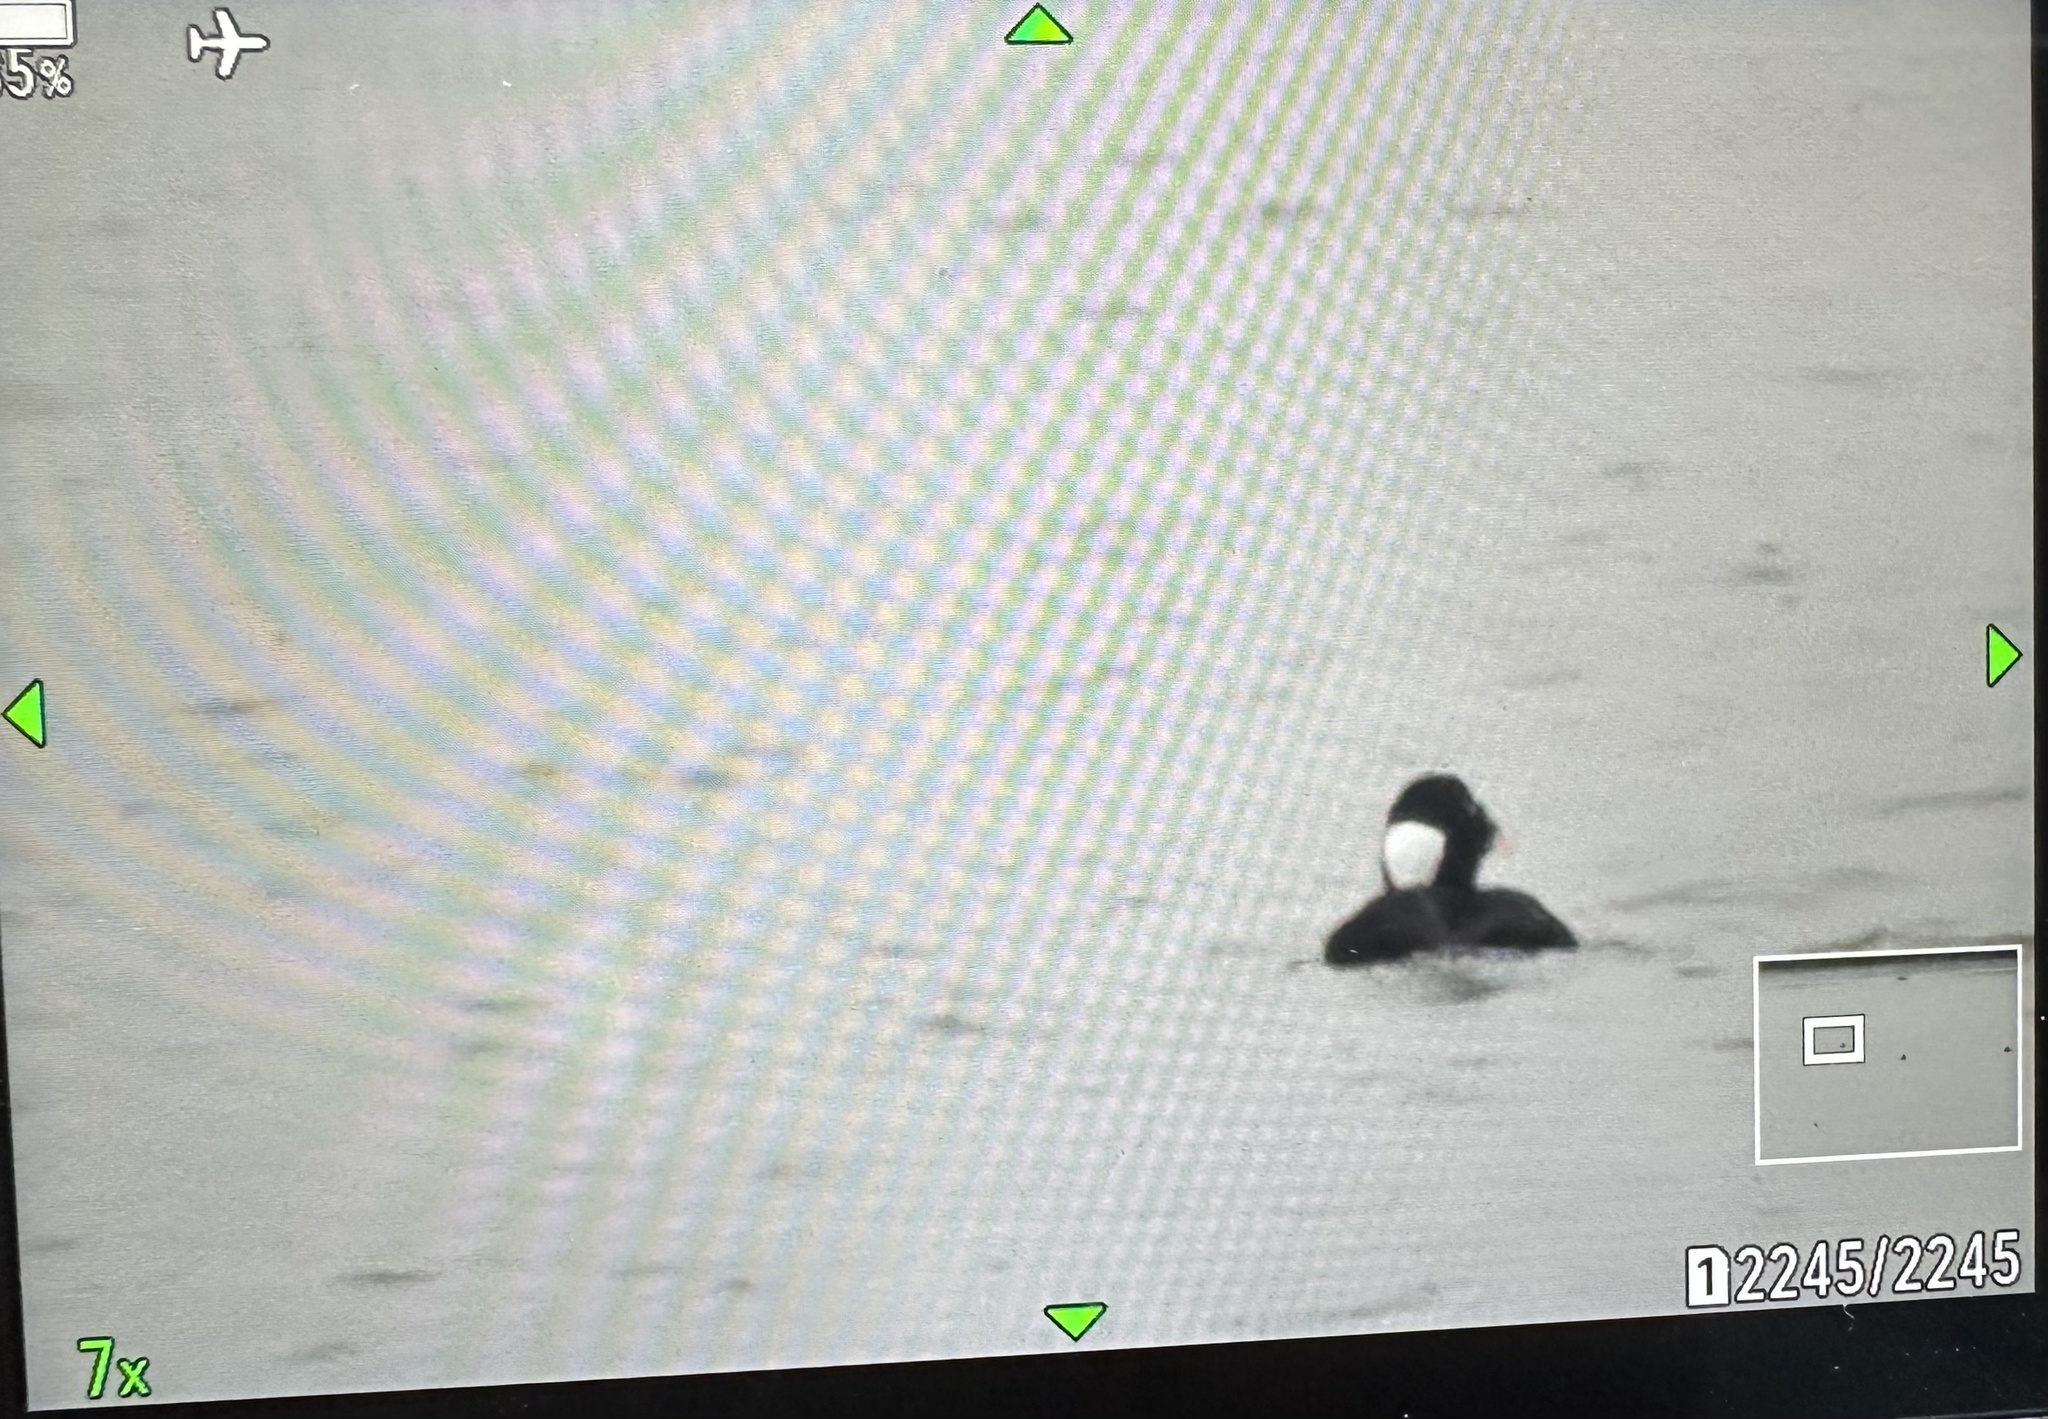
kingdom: Animalia
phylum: Chordata
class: Aves
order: Anseriformes
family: Anatidae
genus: Bucephala
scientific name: Bucephala albeola
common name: Bufflehead
